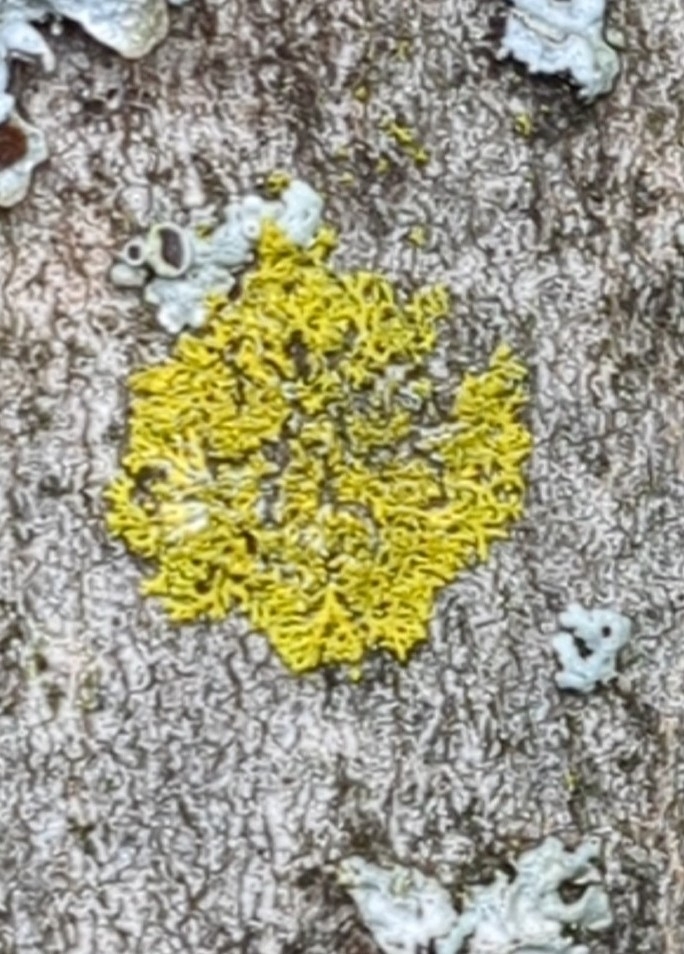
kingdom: Fungi
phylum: Ascomycota
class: Candelariomycetes
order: Candelariales
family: Candelariaceae
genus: Candelaria
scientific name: Candelaria concolor
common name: Candleflame lichen
